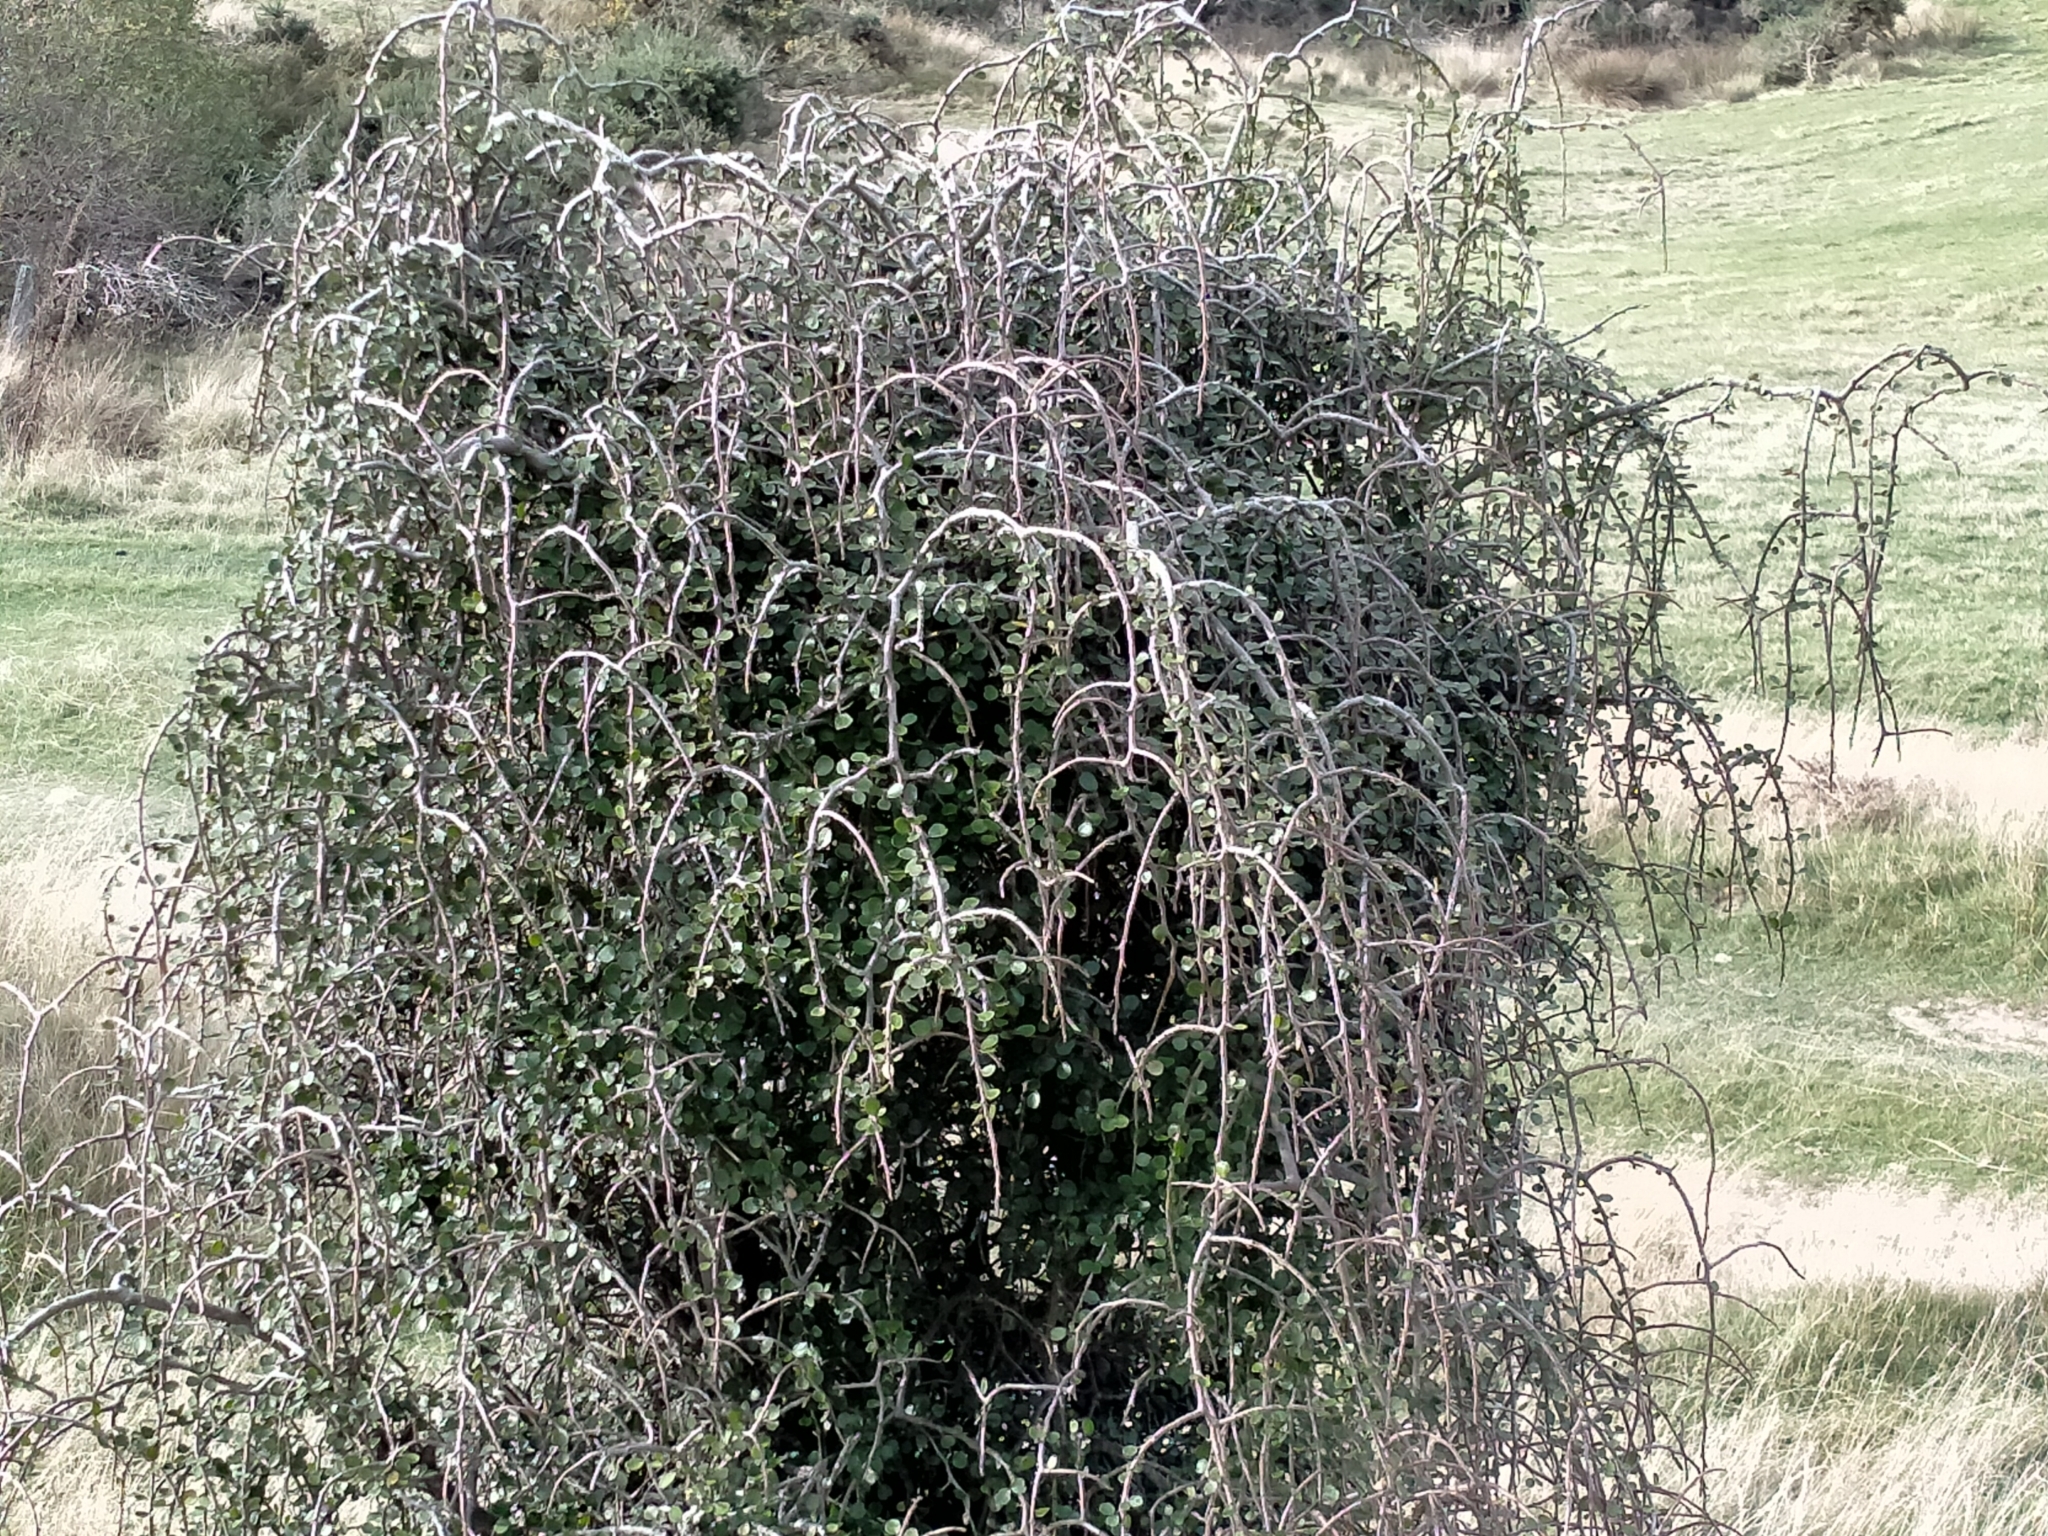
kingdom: Plantae
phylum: Tracheophyta
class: Magnoliopsida
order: Ericales
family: Primulaceae
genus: Myrsine
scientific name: Myrsine divaricata
